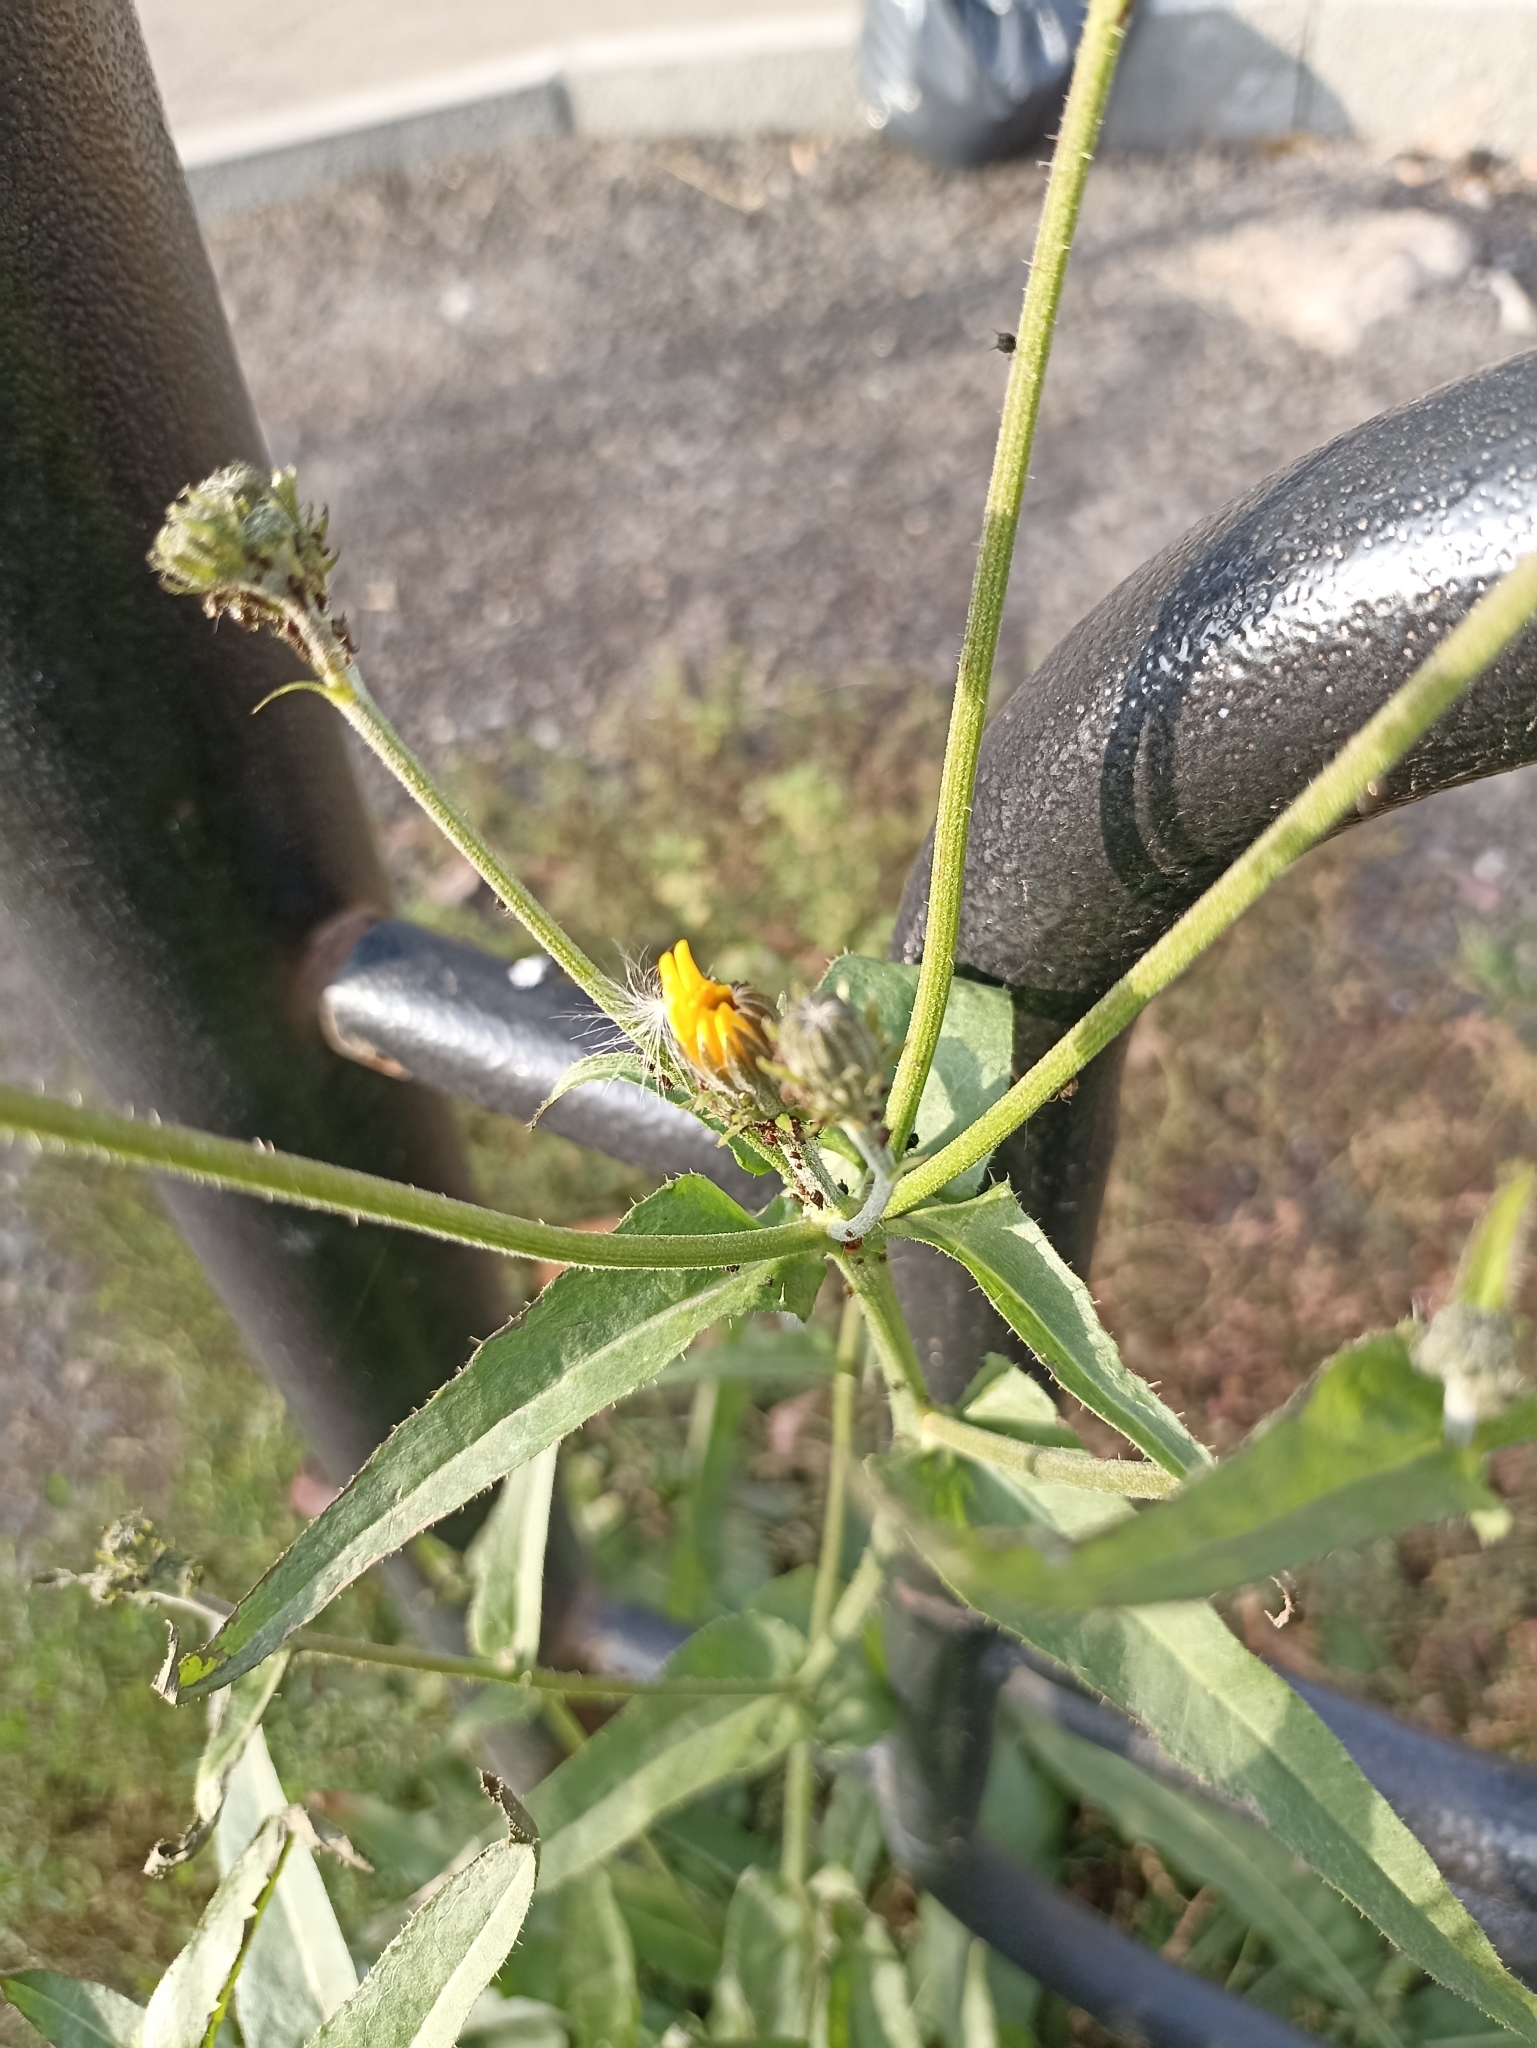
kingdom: Plantae
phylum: Tracheophyta
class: Magnoliopsida
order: Asterales
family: Asteraceae
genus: Picris
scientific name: Picris hieracioides
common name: Hawkweed oxtongue
